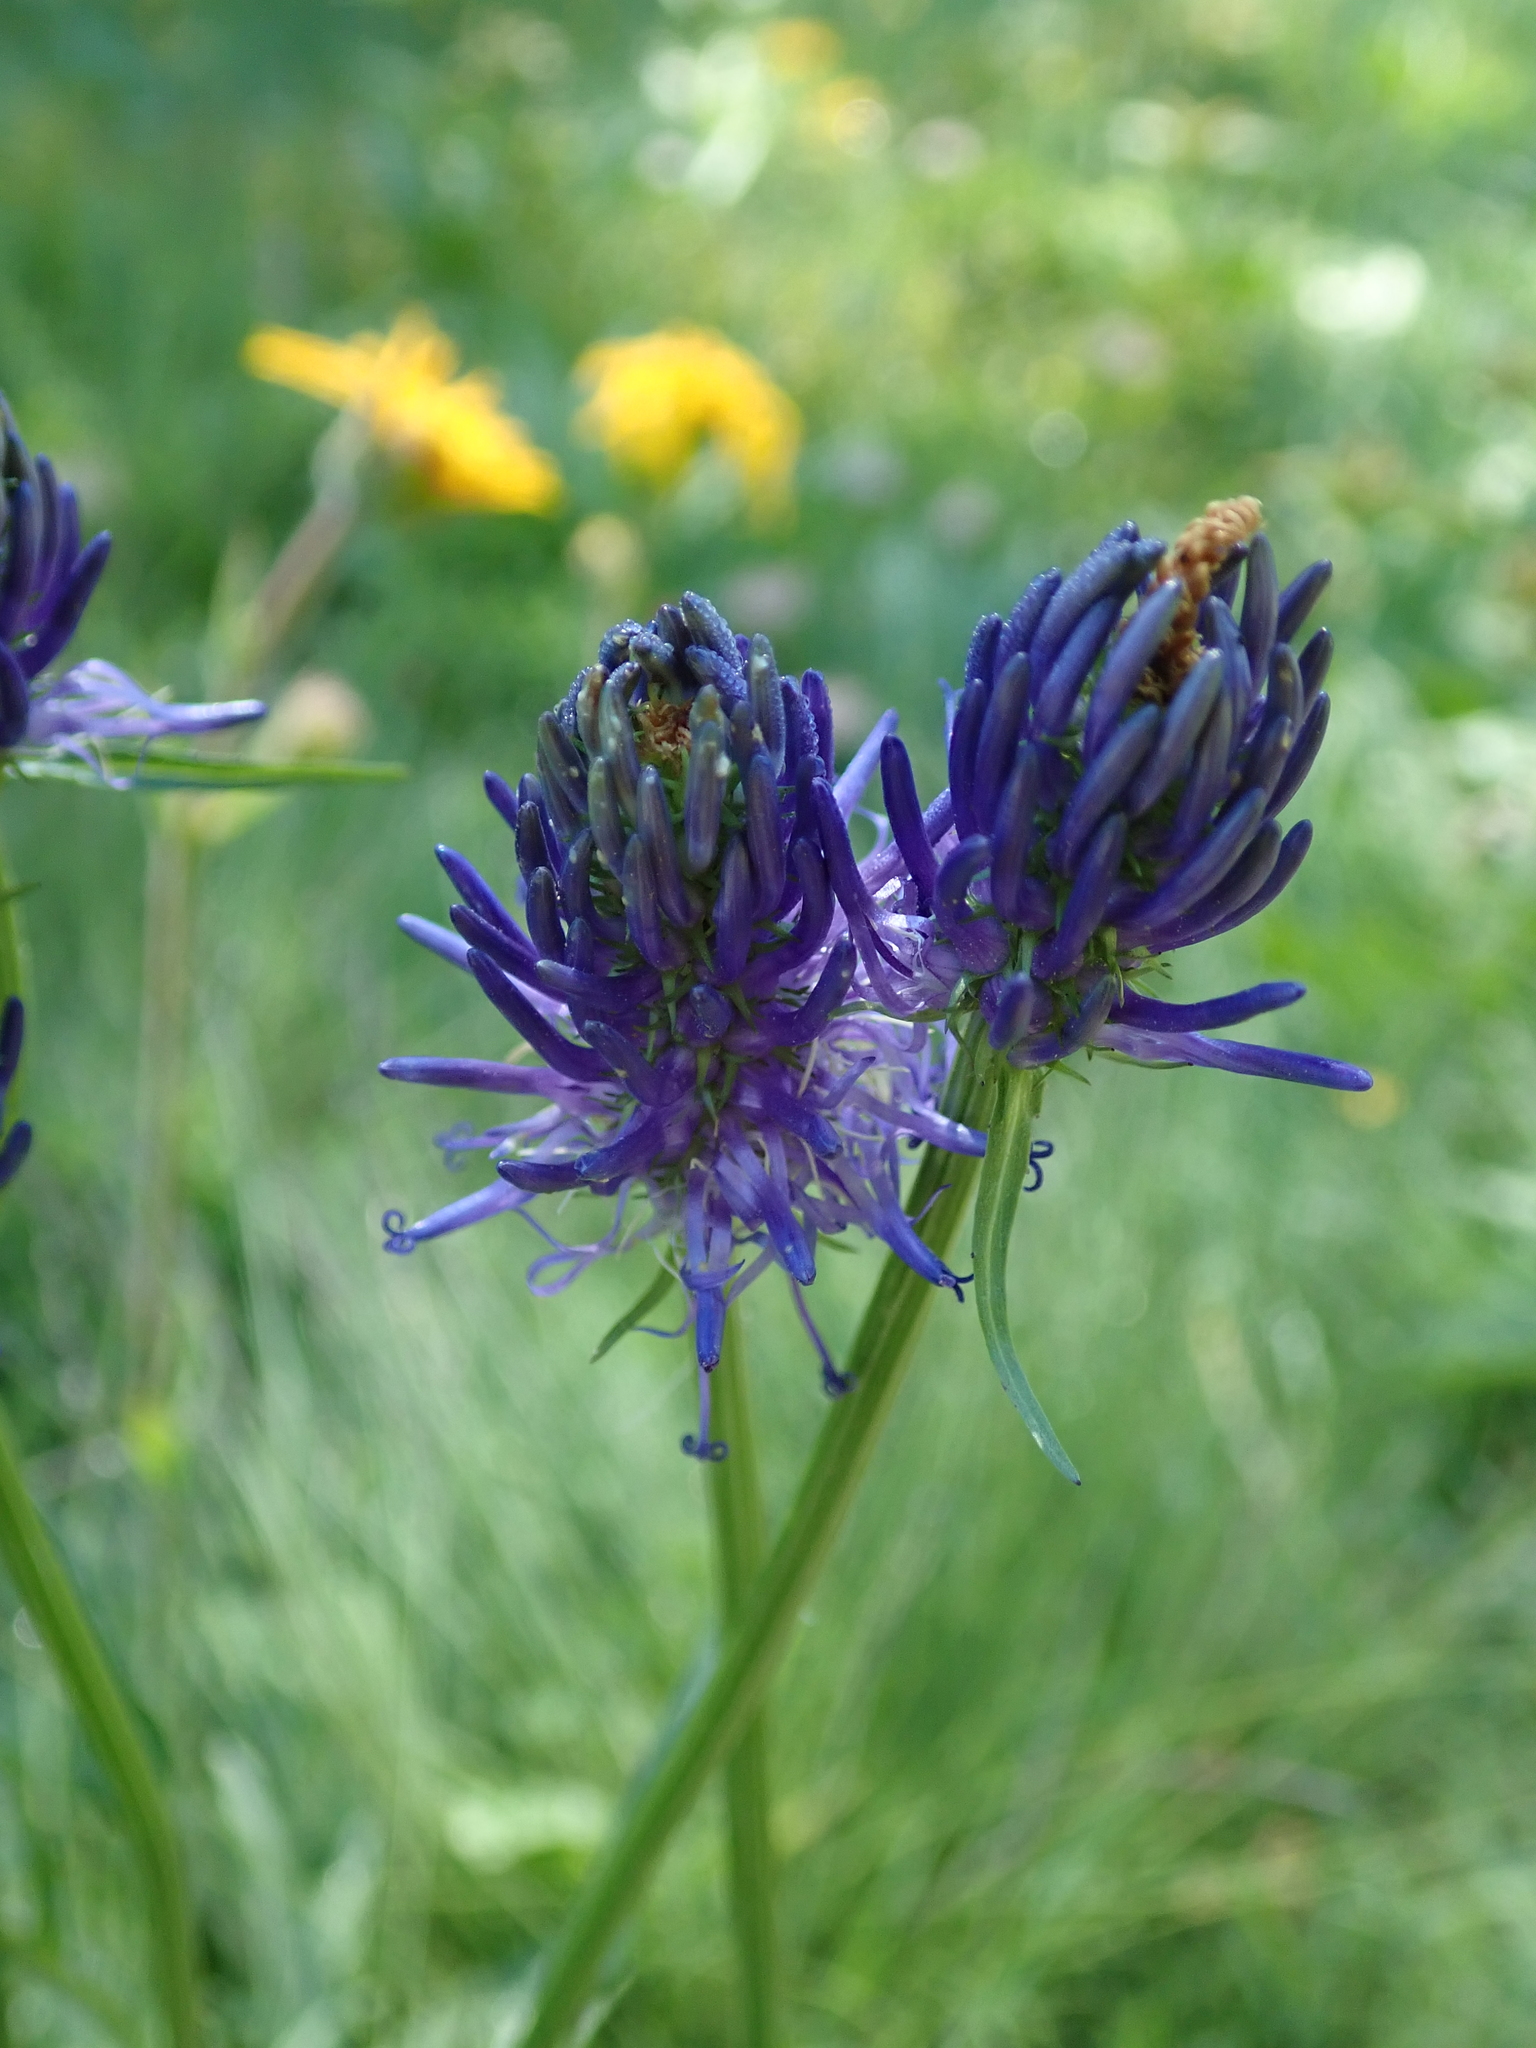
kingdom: Plantae
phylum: Tracheophyta
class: Magnoliopsida
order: Asterales
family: Campanulaceae
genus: Phyteuma
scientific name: Phyteuma betonicifolium
